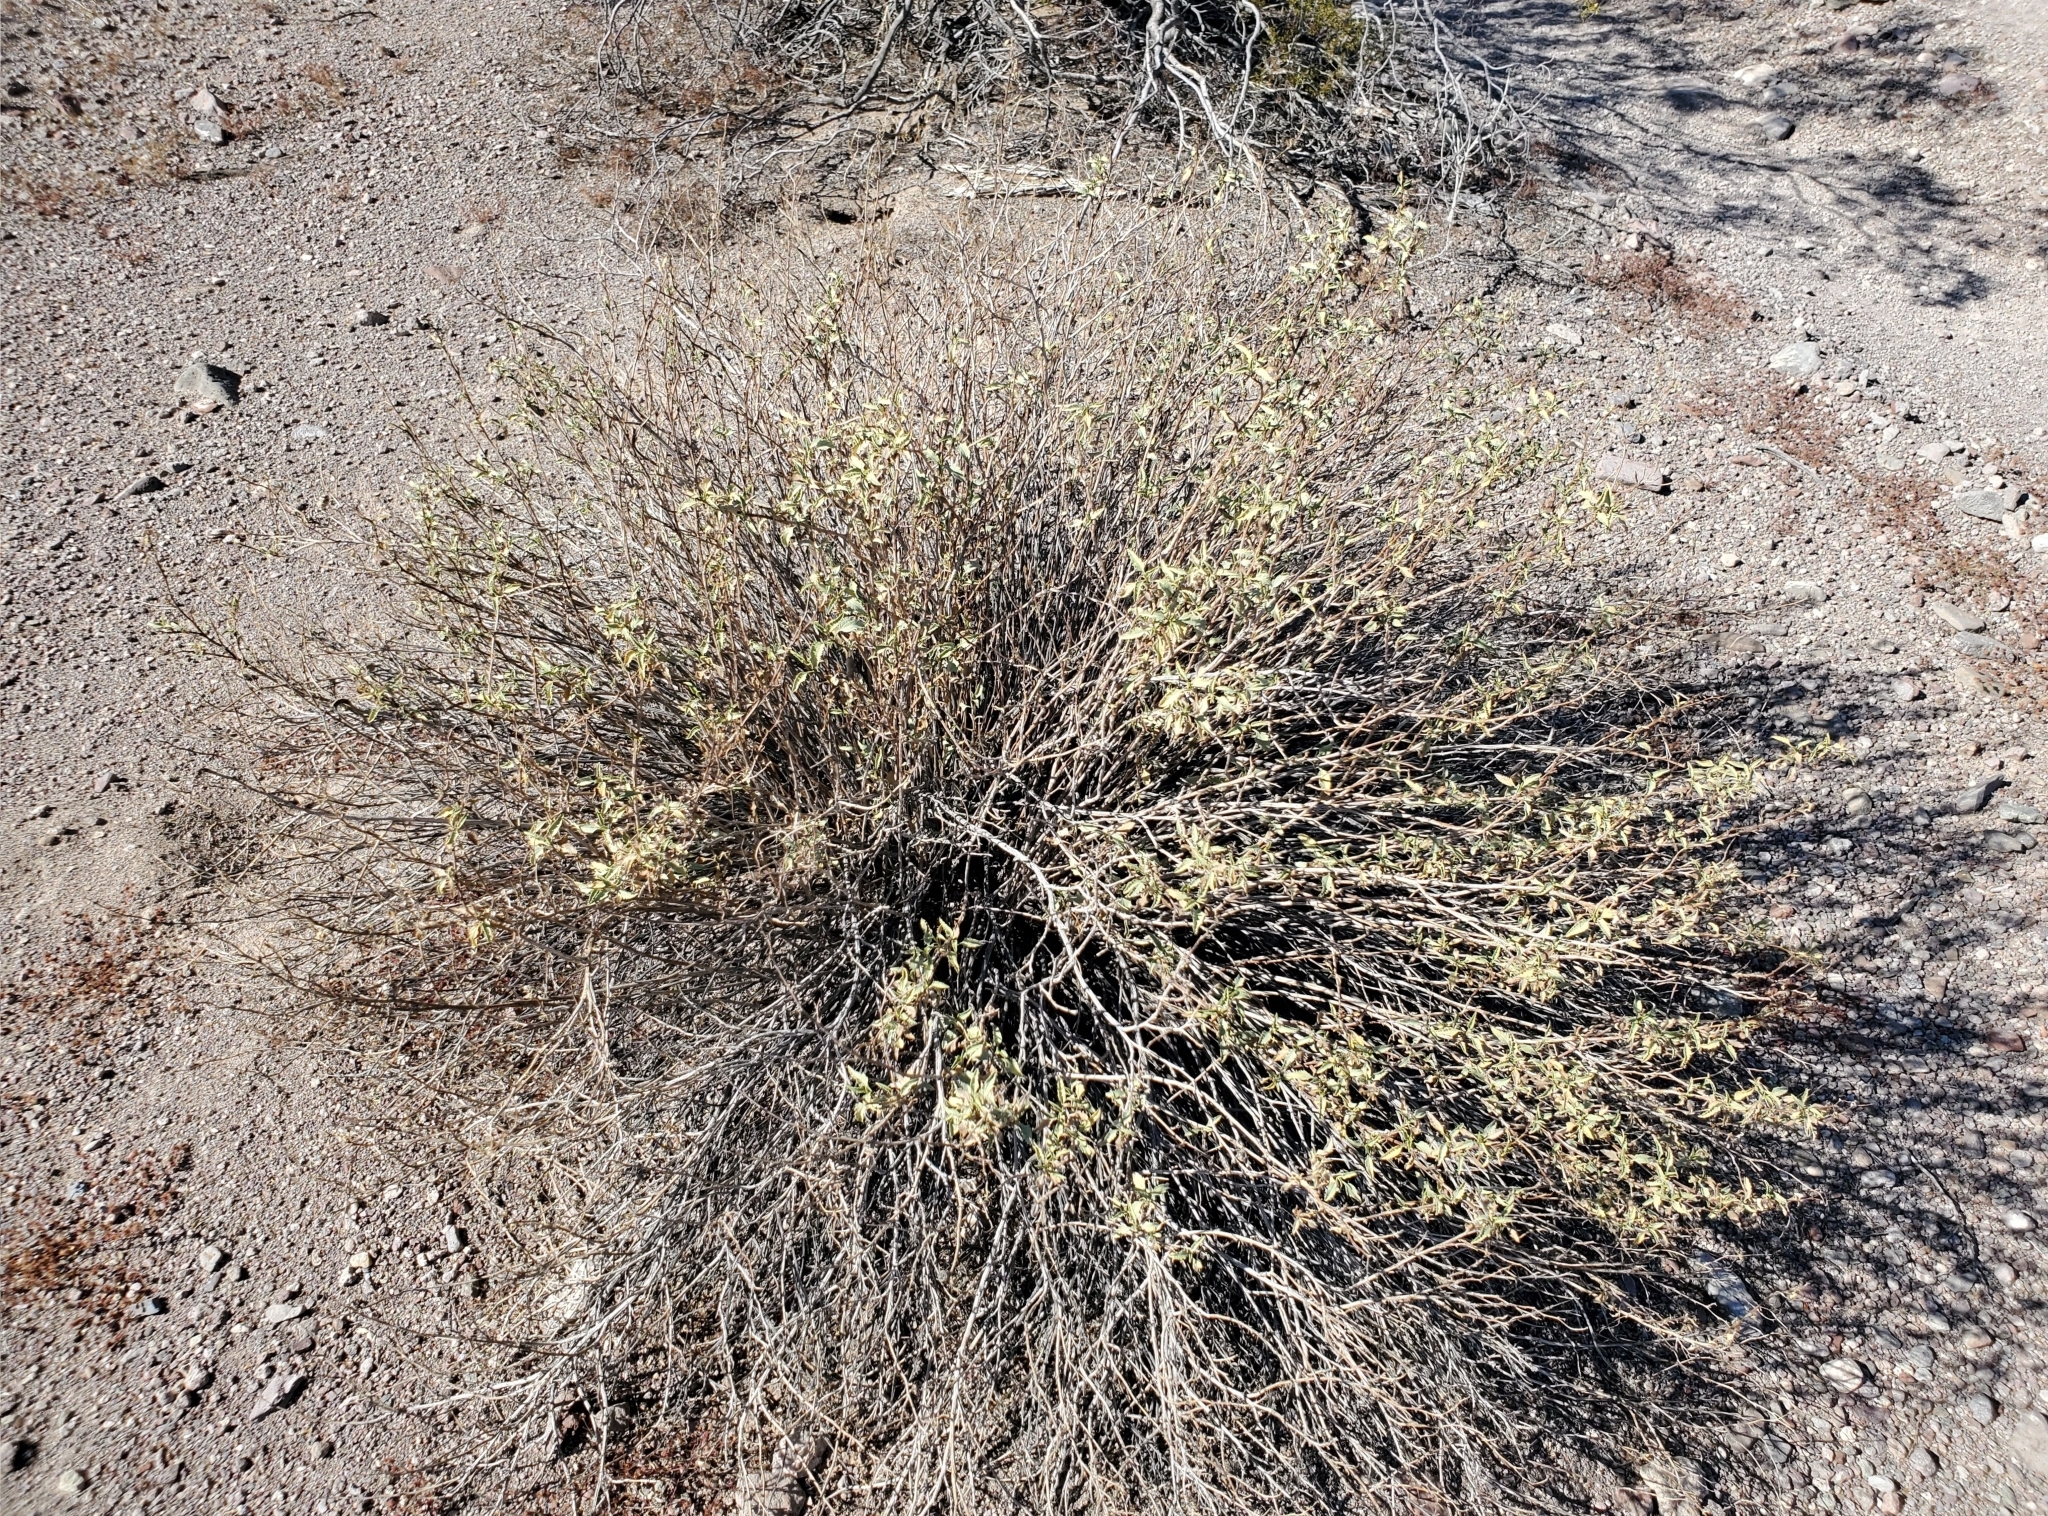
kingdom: Plantae
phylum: Tracheophyta
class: Magnoliopsida
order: Asterales
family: Asteraceae
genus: Ambrosia
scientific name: Ambrosia deltoidea
